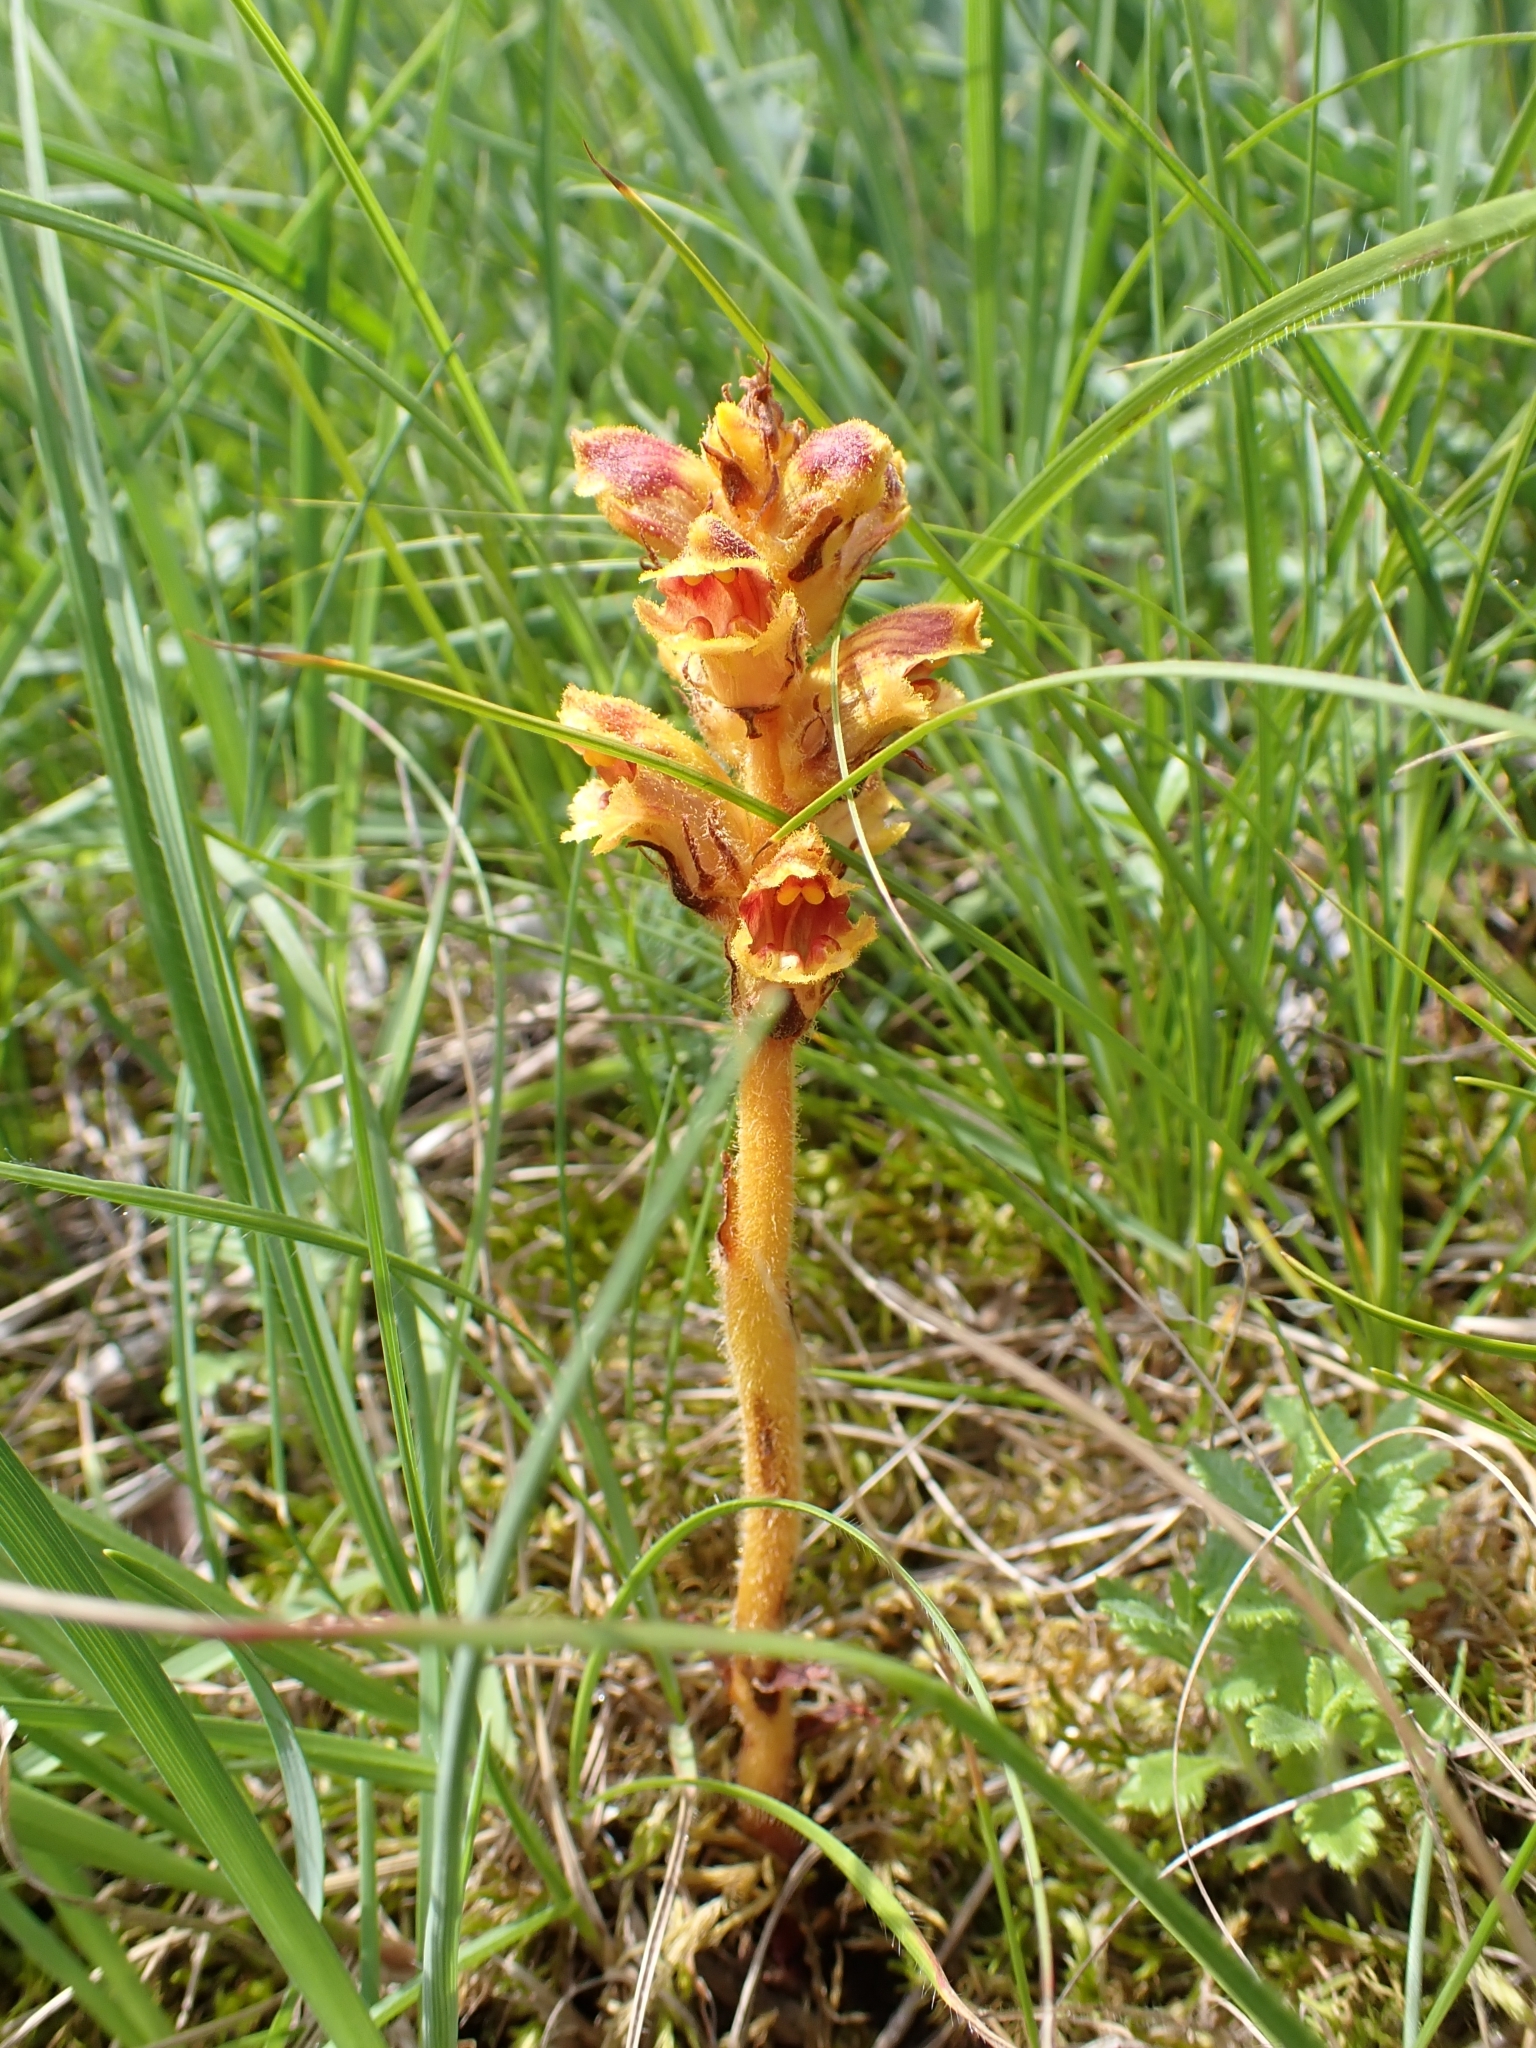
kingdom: Plantae
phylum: Tracheophyta
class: Magnoliopsida
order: Lamiales
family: Orobanchaceae
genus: Orobanche
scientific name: Orobanche gracilis
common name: Slender broomrape
